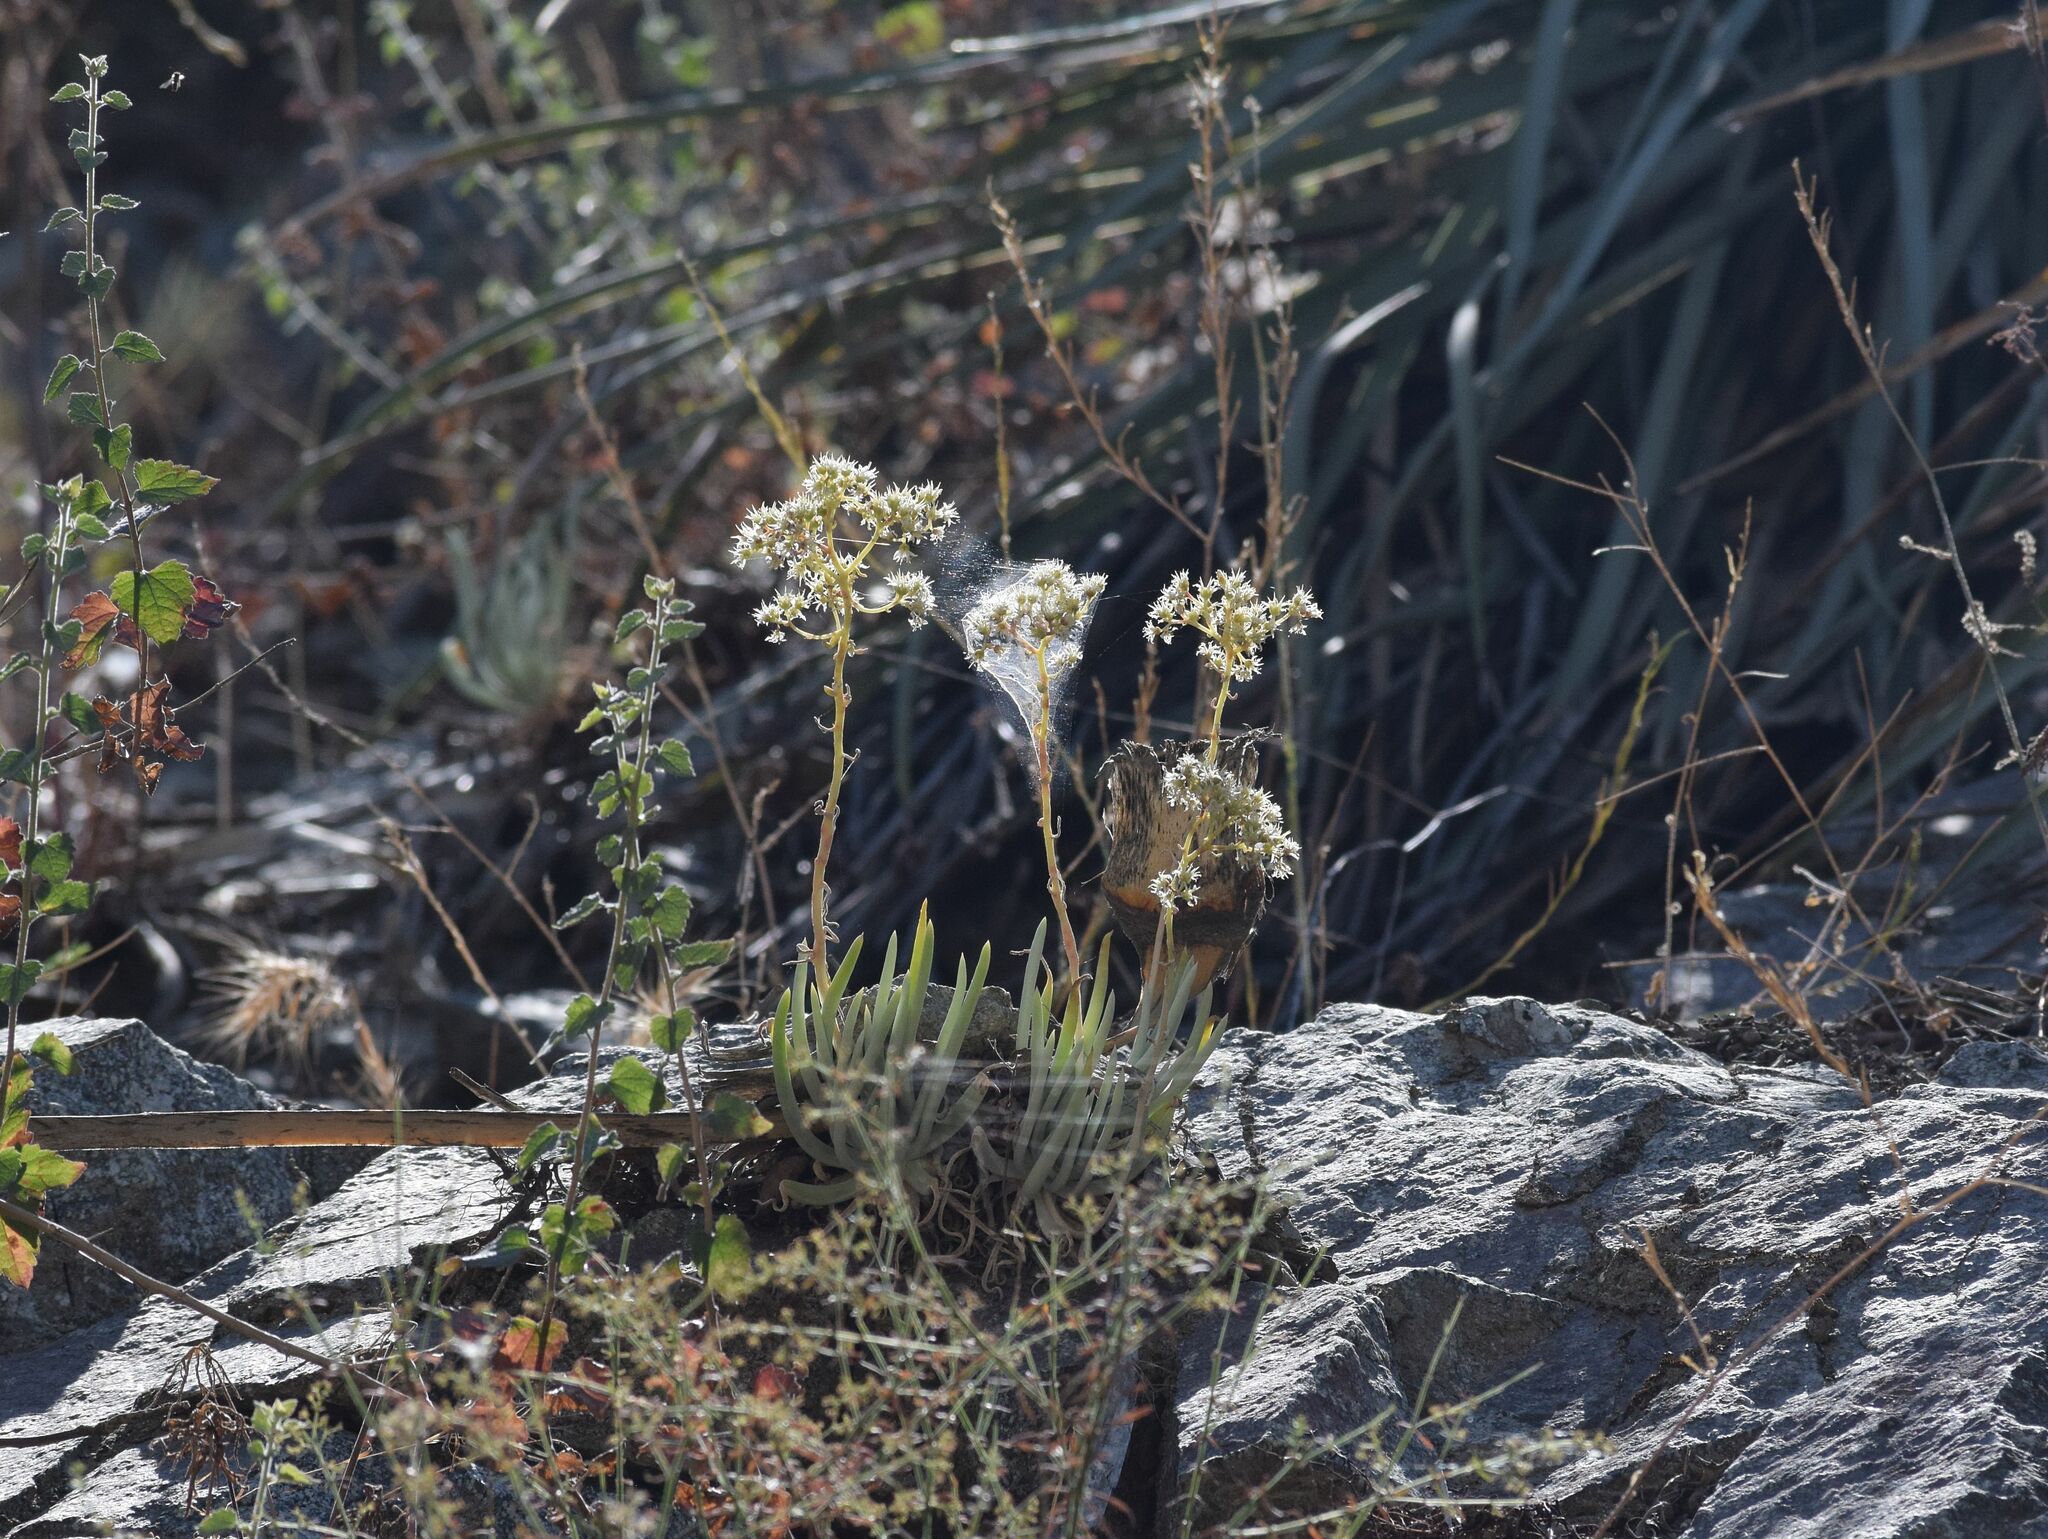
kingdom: Plantae
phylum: Tracheophyta
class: Magnoliopsida
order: Saxifragales
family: Crassulaceae
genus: Dudleya
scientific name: Dudleya densiflora
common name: San gabriel mountains dudleya
